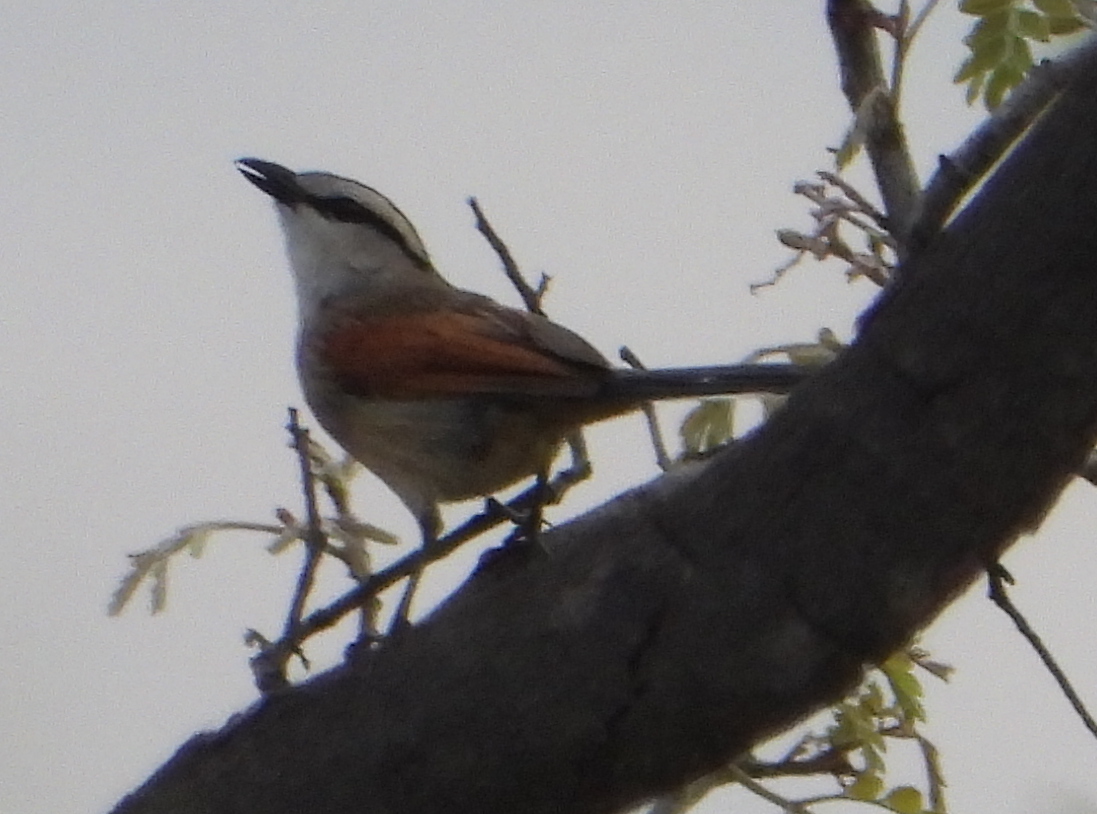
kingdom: Animalia
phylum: Chordata
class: Aves
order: Passeriformes
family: Malaconotidae
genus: Tchagra
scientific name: Tchagra australis
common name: Brown-crowned tchagra
